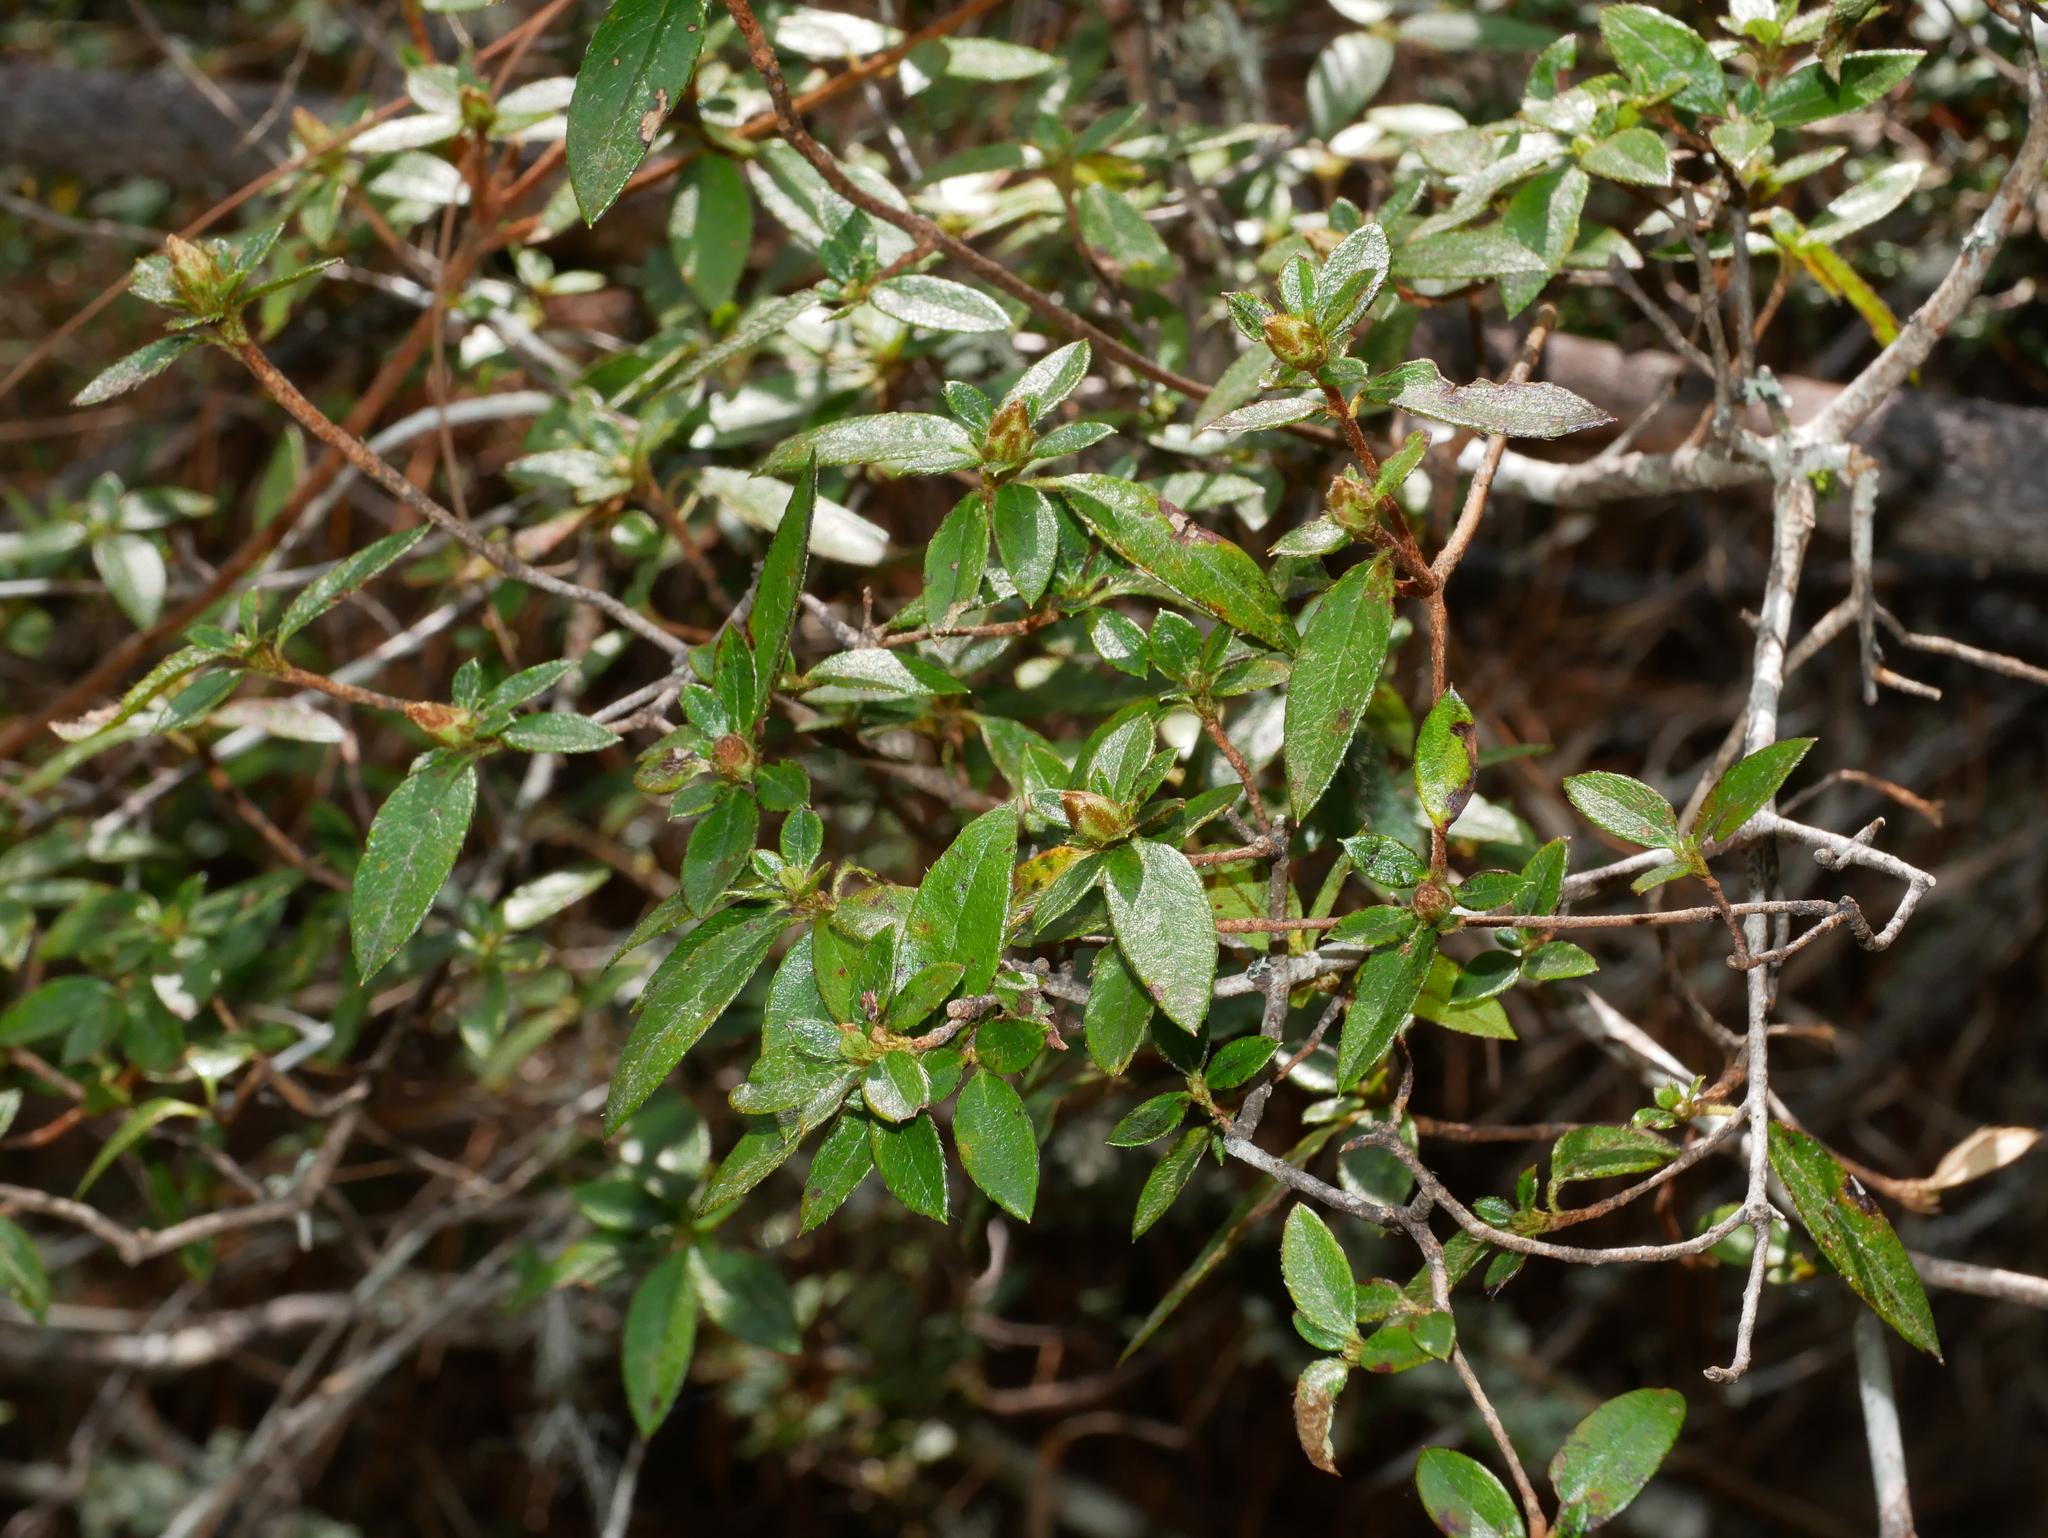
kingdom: Plantae
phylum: Tracheophyta
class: Magnoliopsida
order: Ericales
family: Ericaceae
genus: Rhododendron
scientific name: Rhododendron noriakianum
